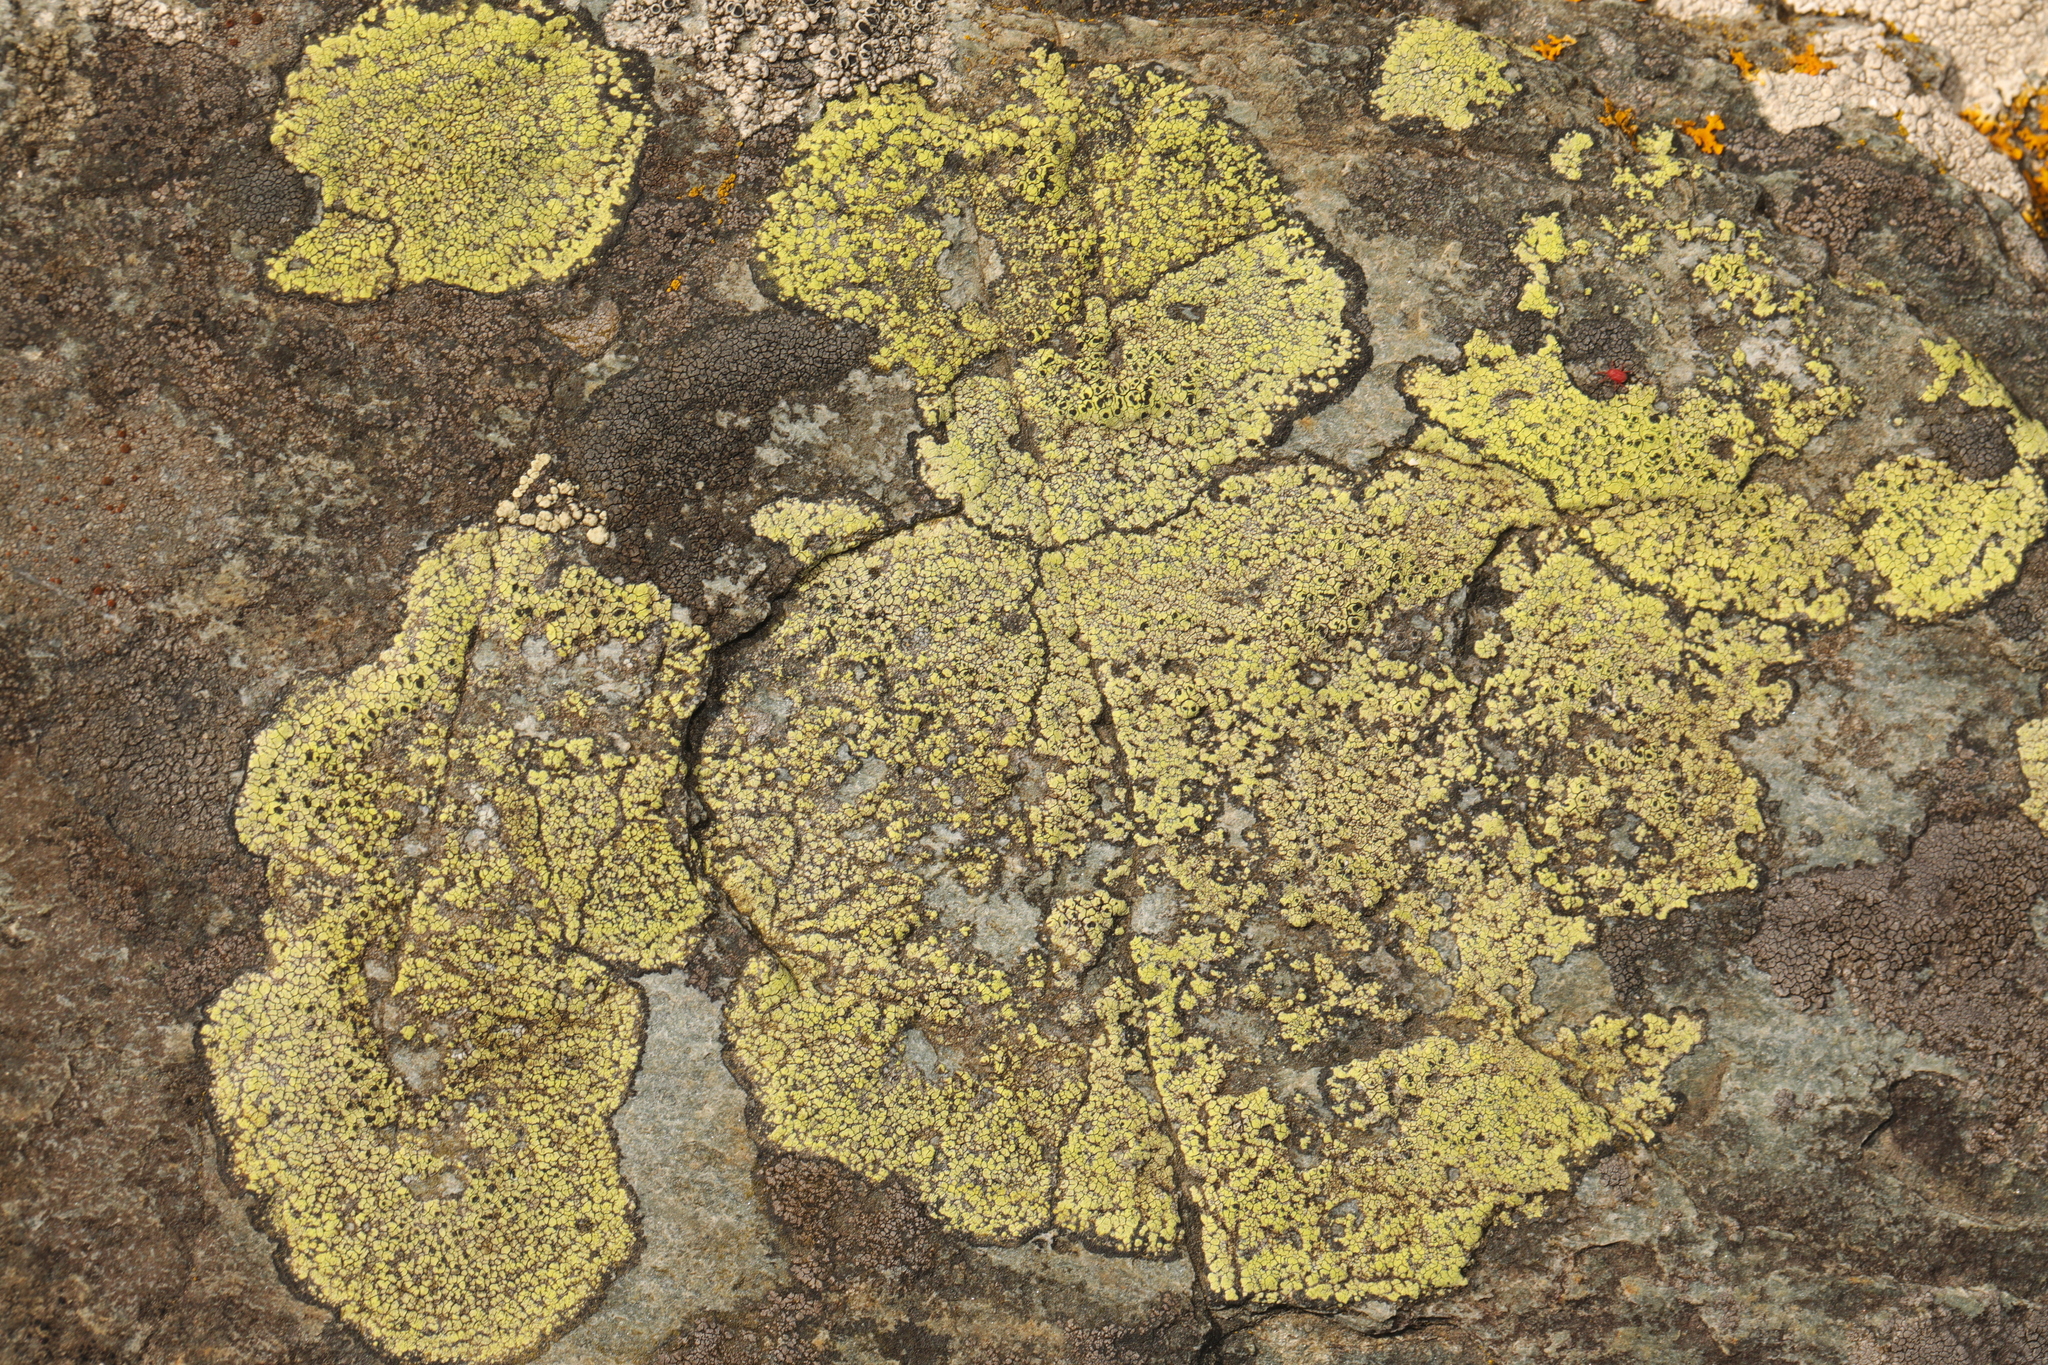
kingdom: Fungi
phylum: Ascomycota
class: Lecanoromycetes
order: Rhizocarpales
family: Rhizocarpaceae
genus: Rhizocarpon
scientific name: Rhizocarpon geographicum
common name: Yellow map lichen
